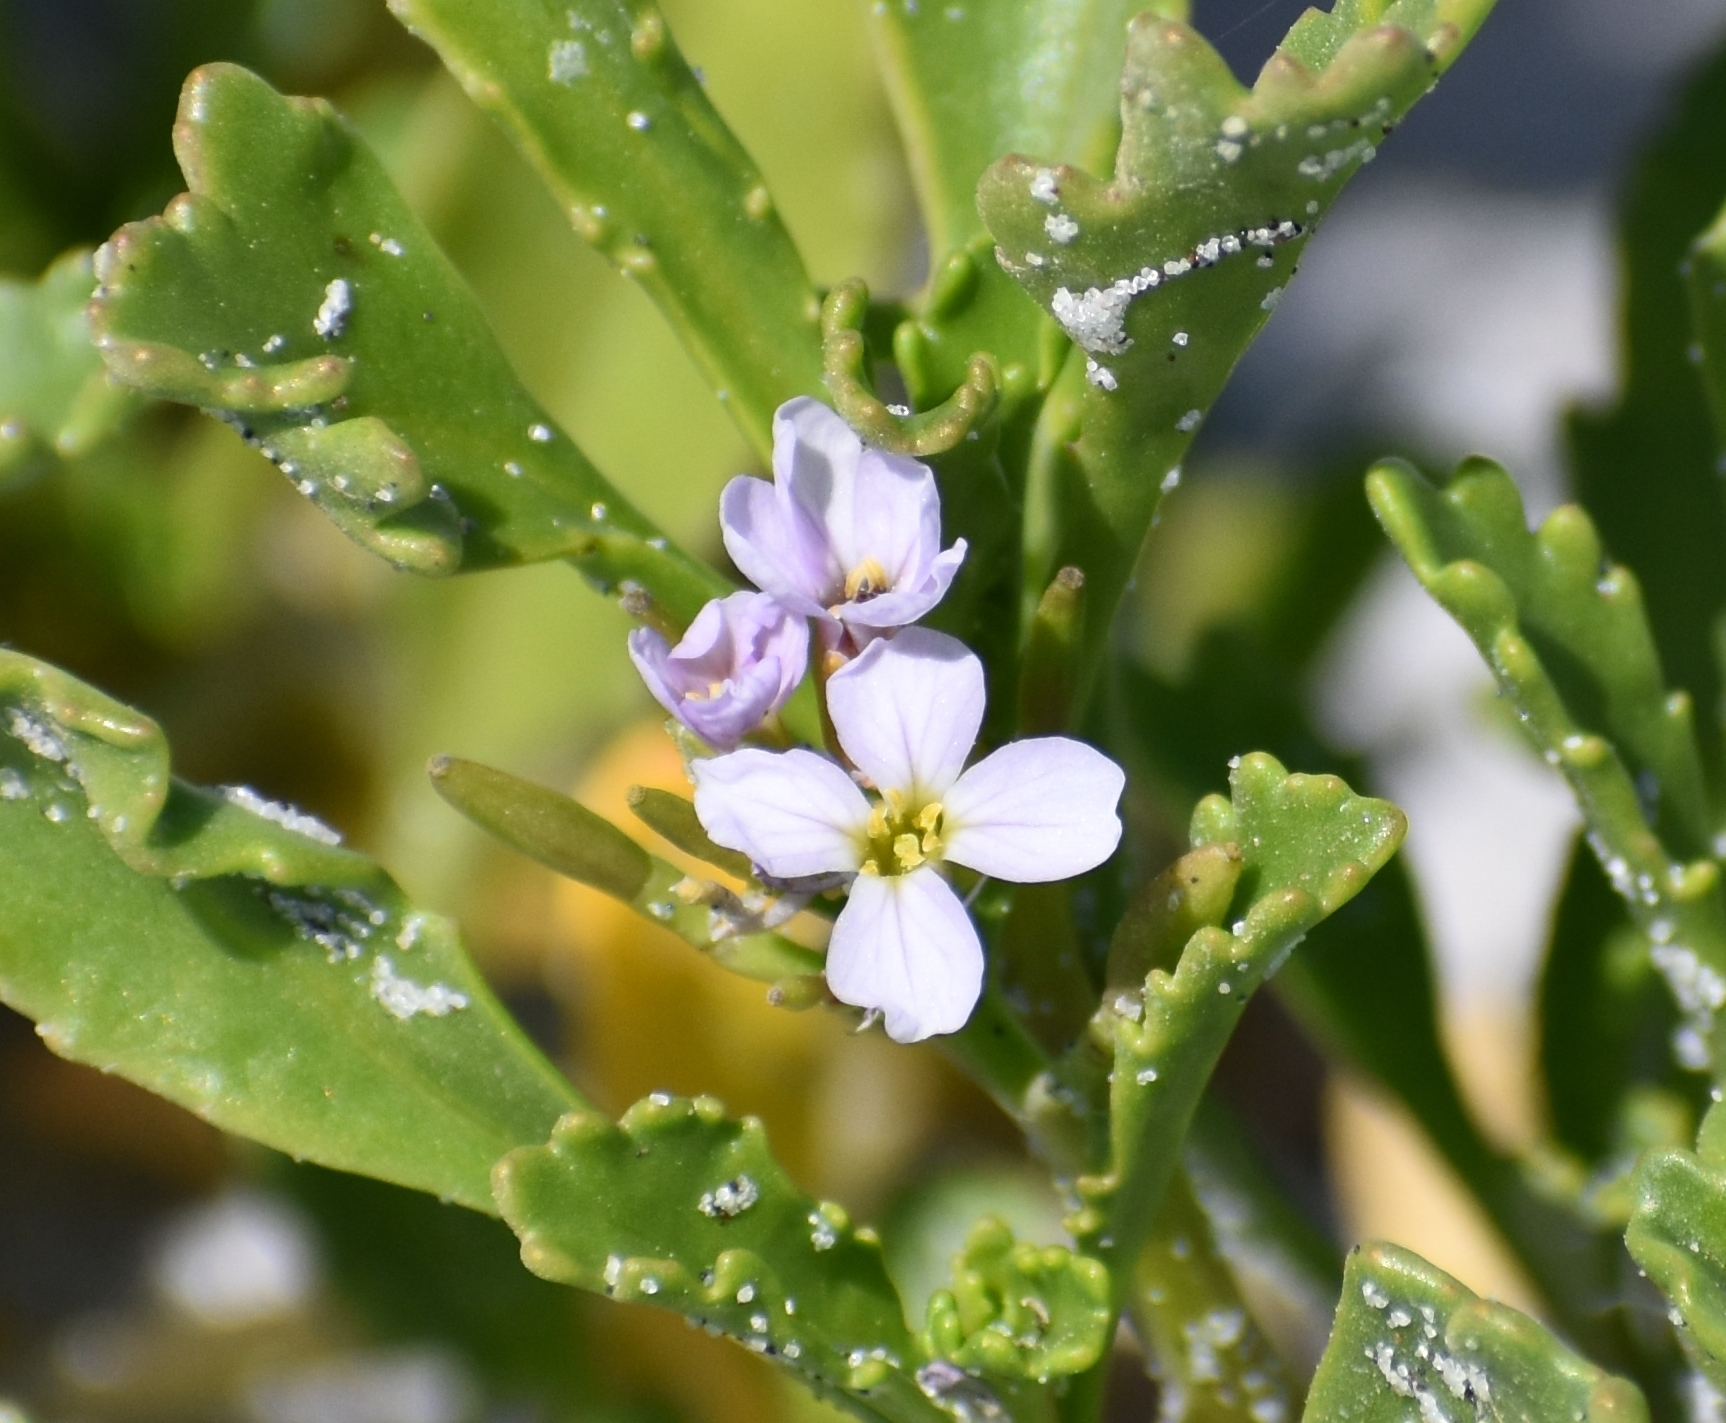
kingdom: Plantae
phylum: Tracheophyta
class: Magnoliopsida
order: Brassicales
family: Brassicaceae
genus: Cakile
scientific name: Cakile constricta
